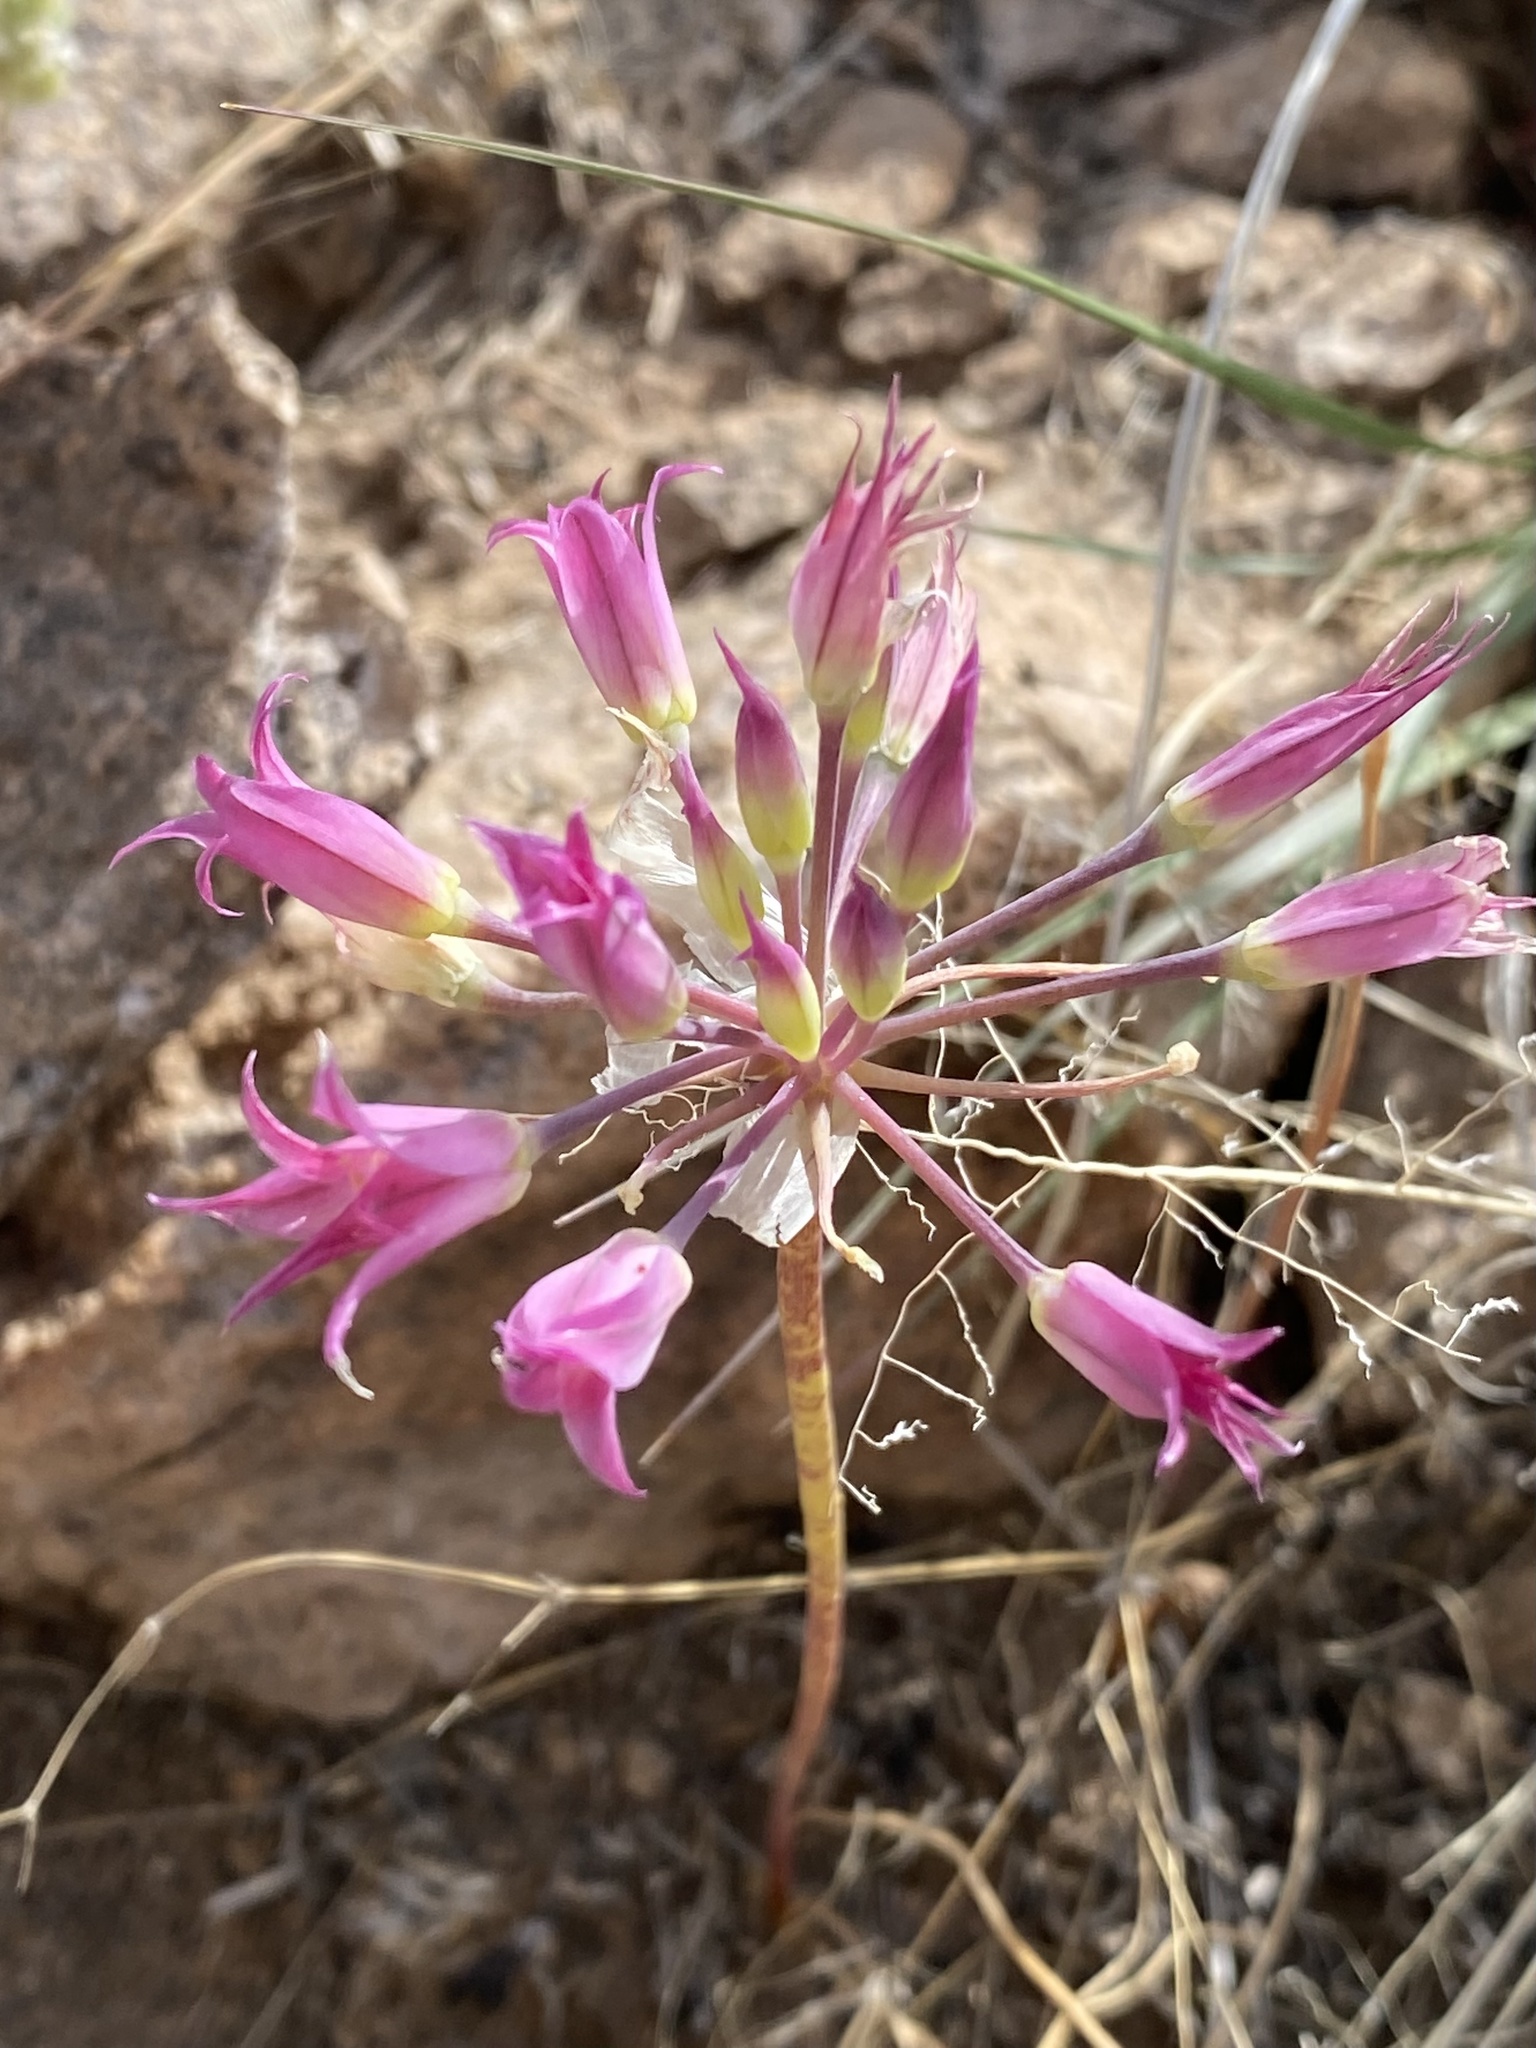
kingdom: Plantae
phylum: Tracheophyta
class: Liliopsida
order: Asparagales
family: Amaryllidaceae
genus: Allium
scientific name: Allium acuminatum
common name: Hooker's onion
